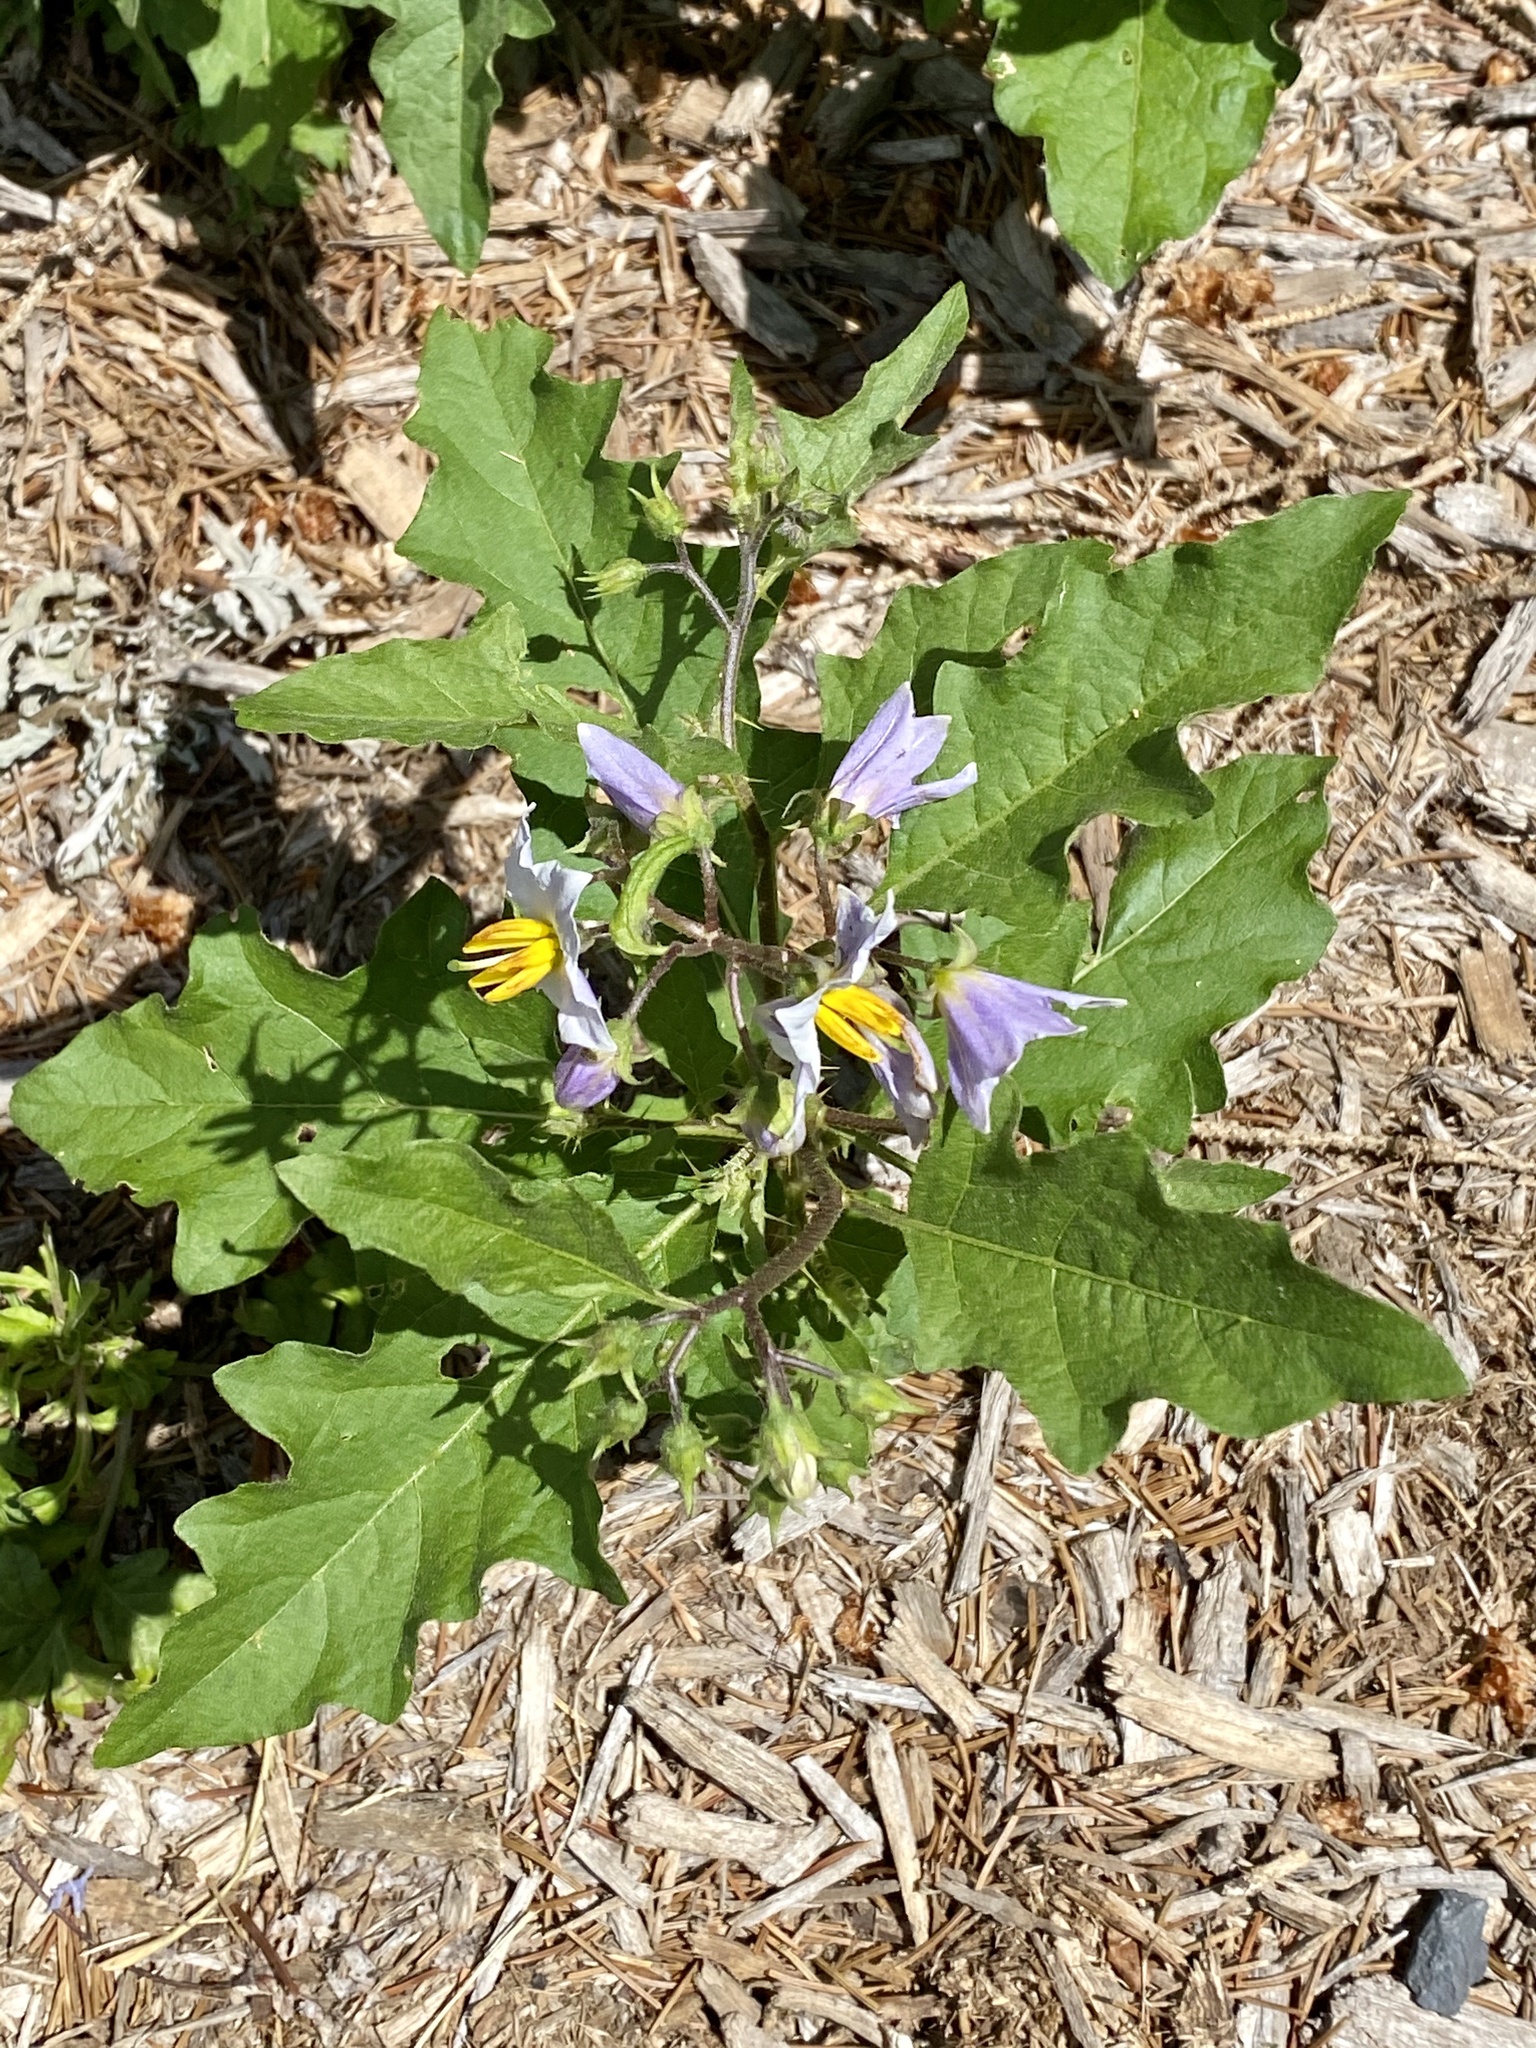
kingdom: Plantae
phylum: Tracheophyta
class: Magnoliopsida
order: Solanales
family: Solanaceae
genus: Solanum
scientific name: Solanum carolinense
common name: Horse-nettle
